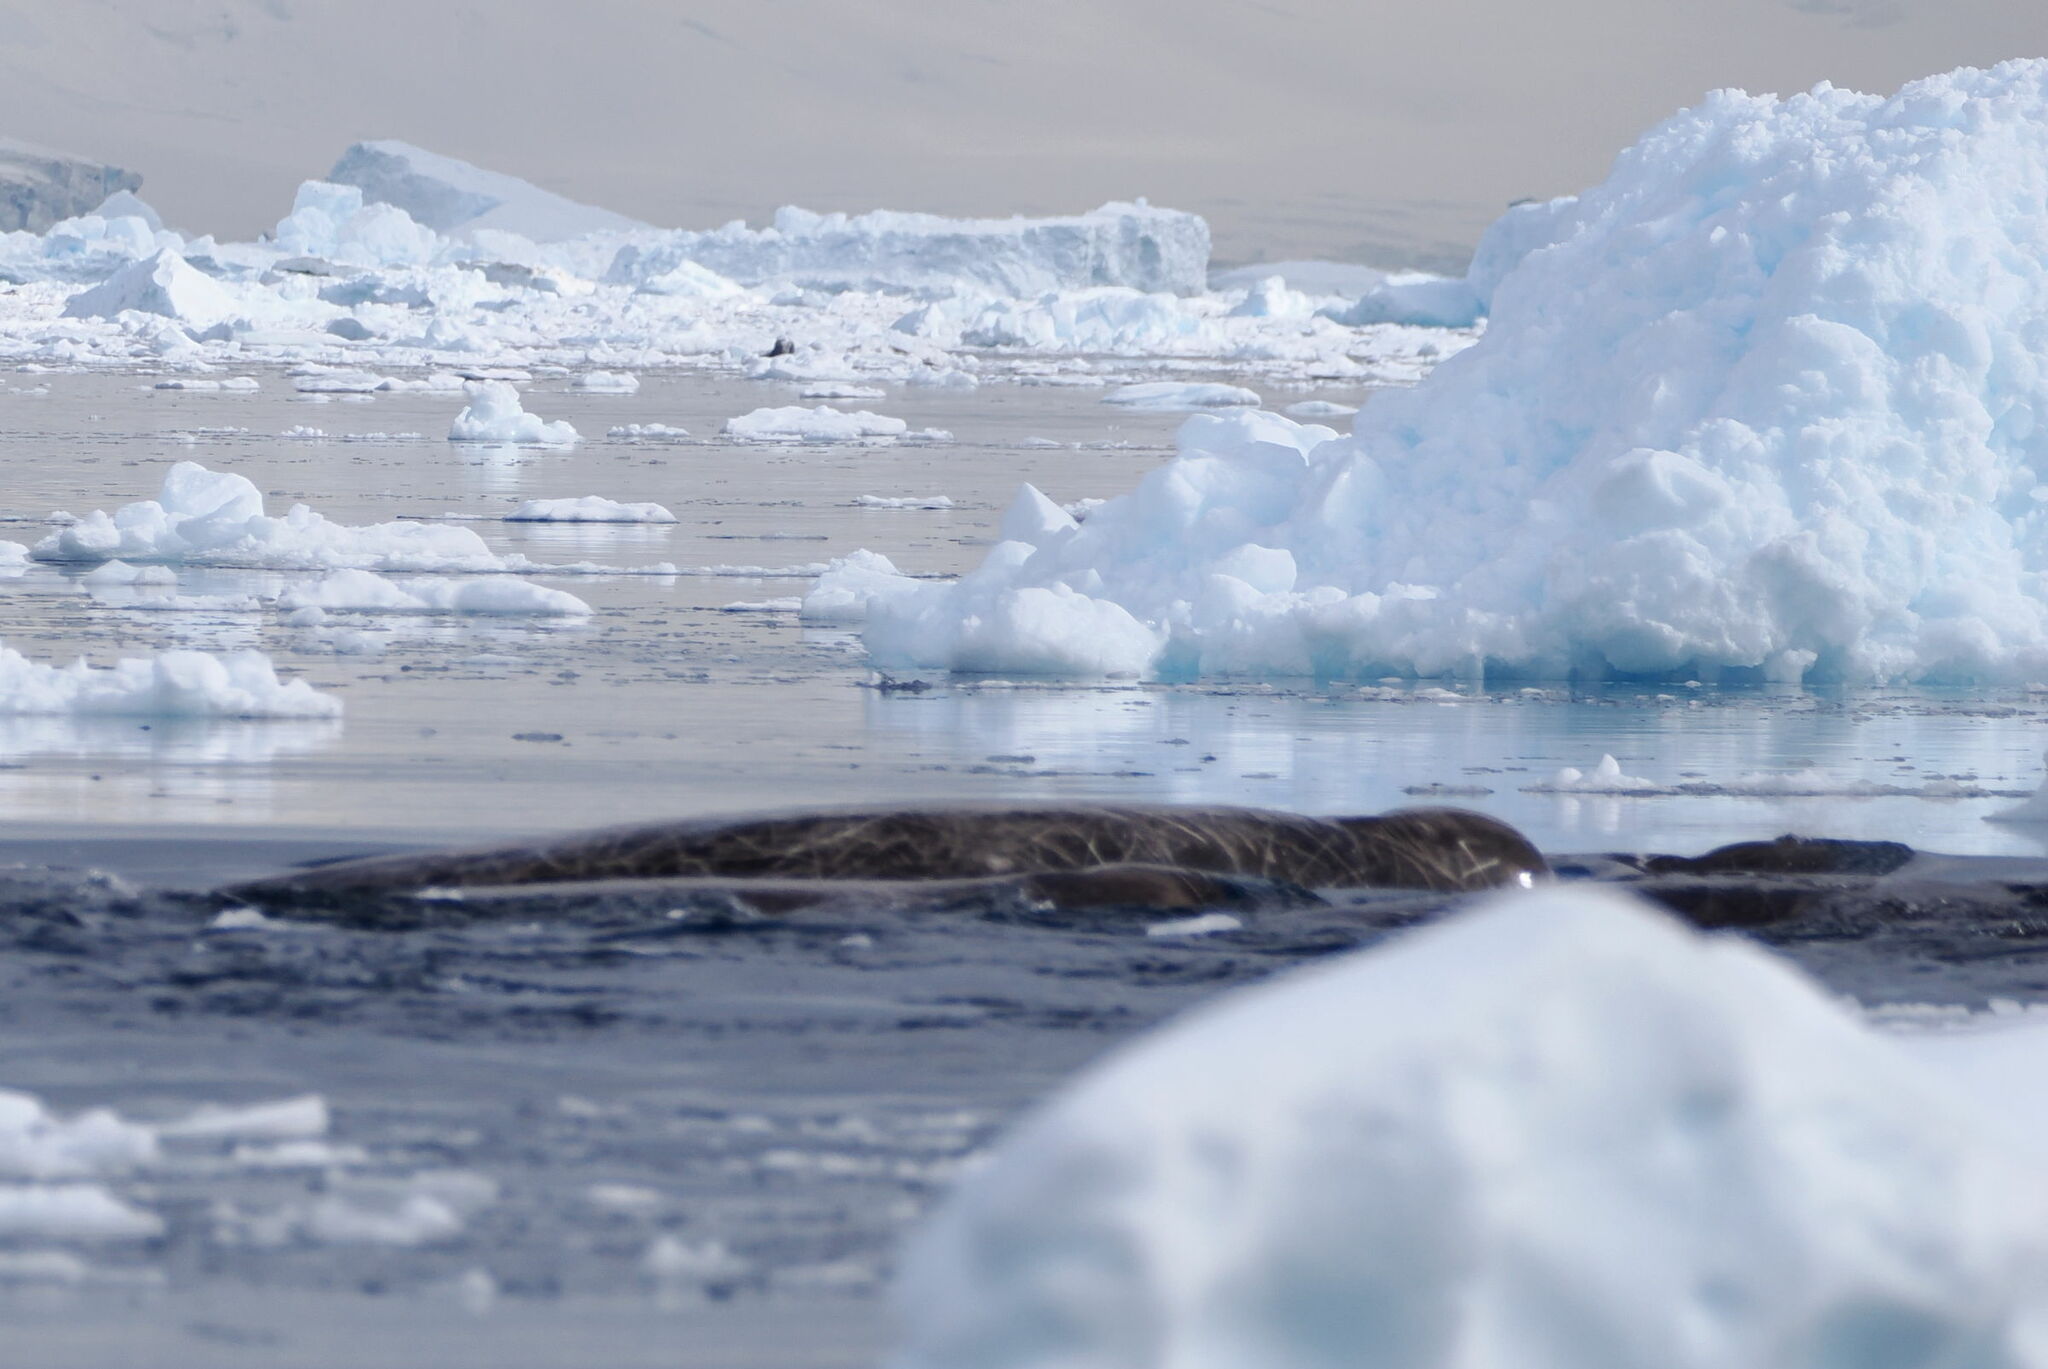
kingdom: Animalia
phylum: Chordata
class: Mammalia
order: Cetacea
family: Hyperoodontidae
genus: Berardius
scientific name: Berardius arnuxii
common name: Arnoux's beaked whale
